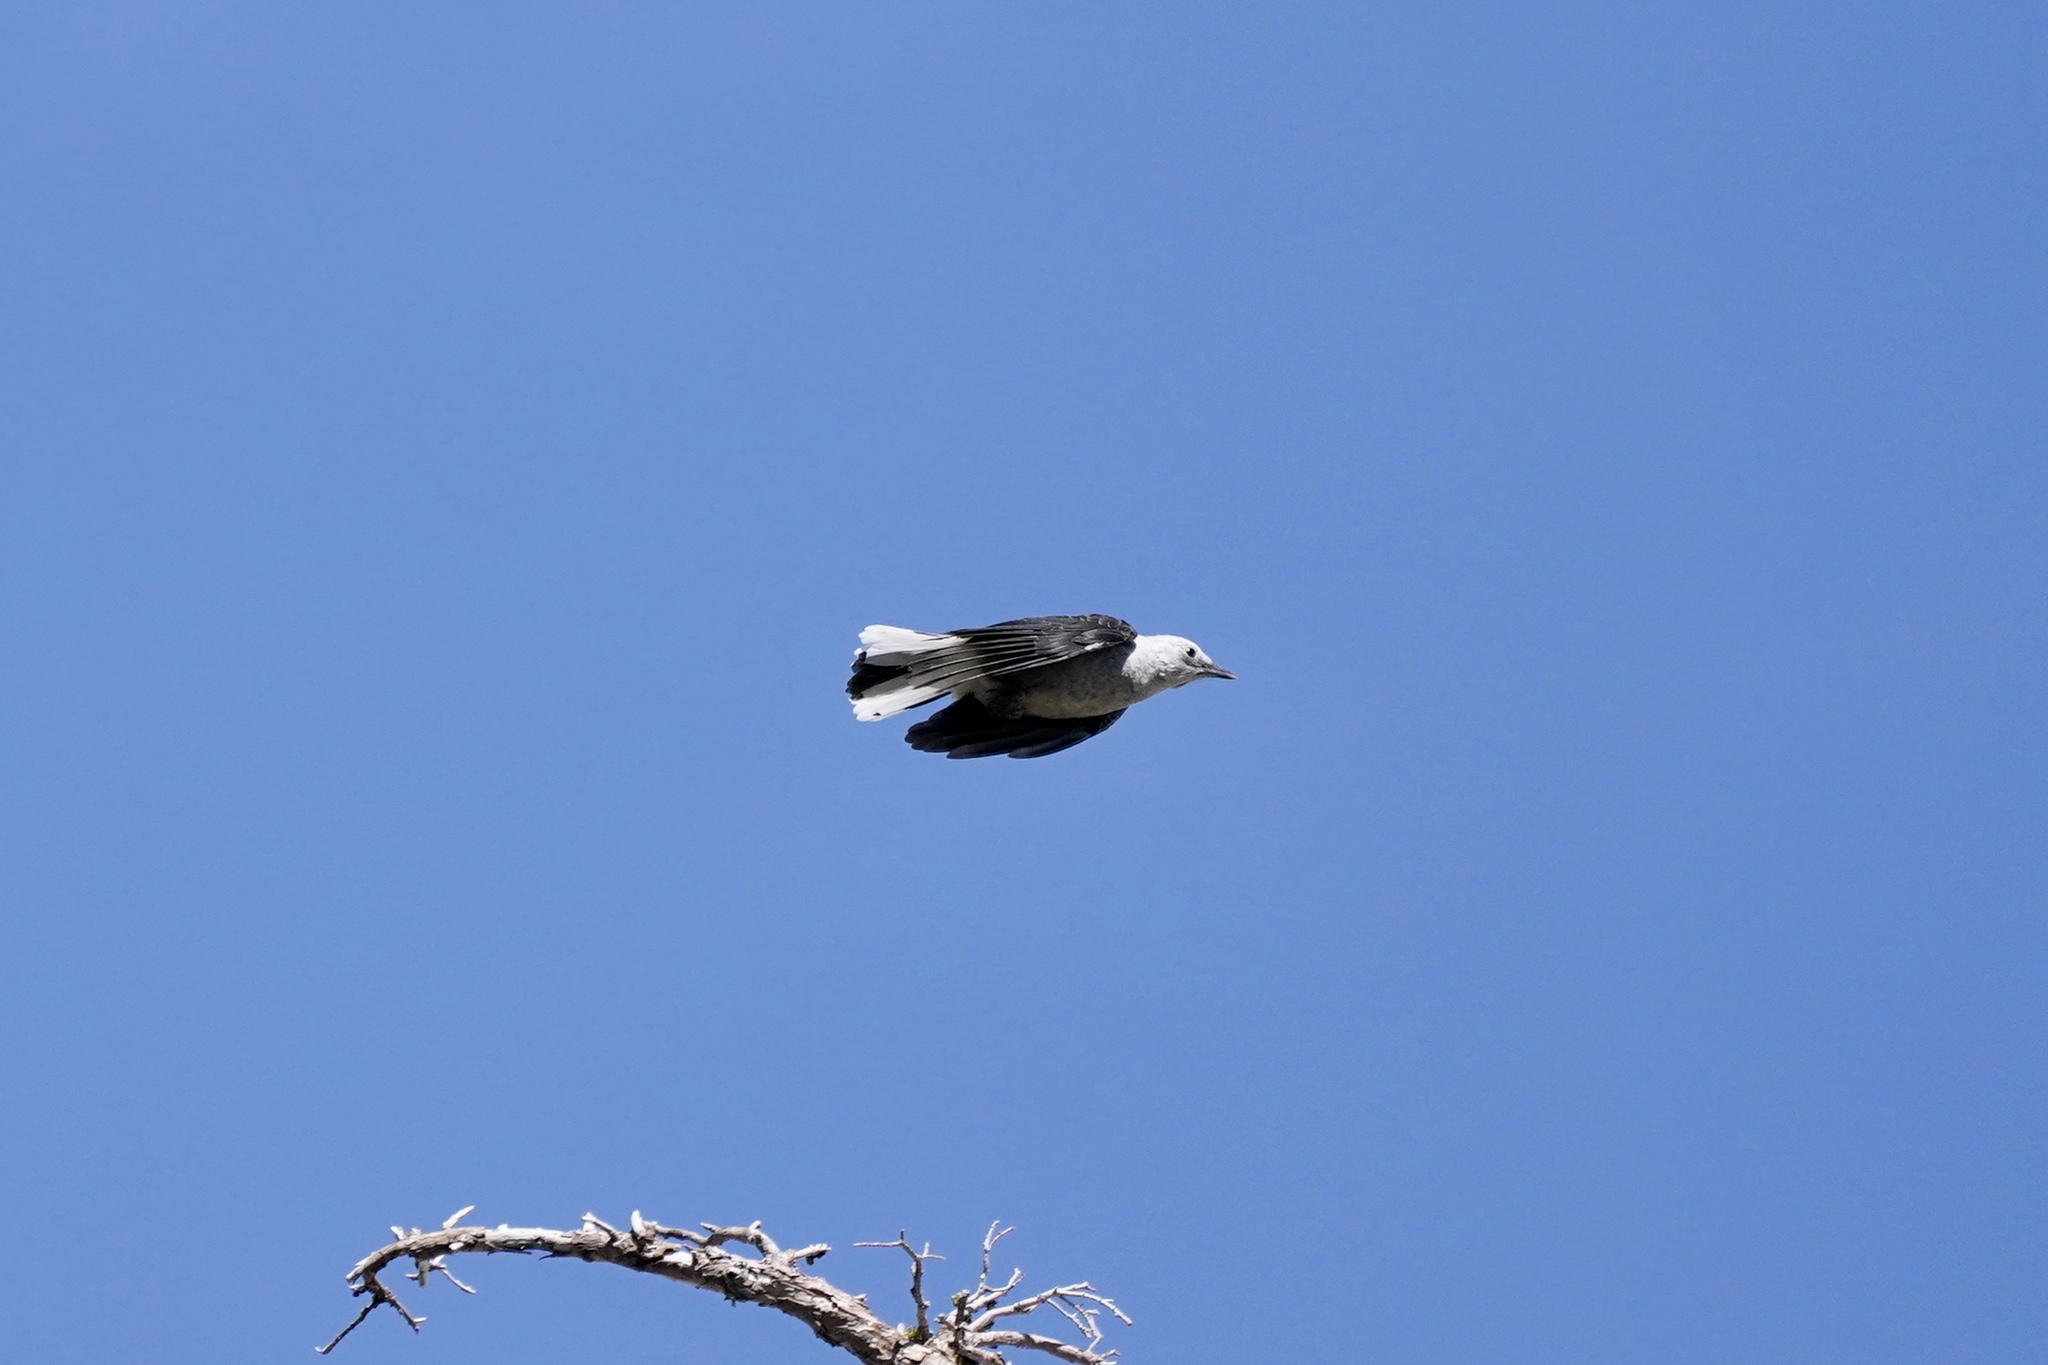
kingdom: Animalia
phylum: Chordata
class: Aves
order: Passeriformes
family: Corvidae
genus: Nucifraga
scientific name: Nucifraga columbiana
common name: Clark's nutcracker
